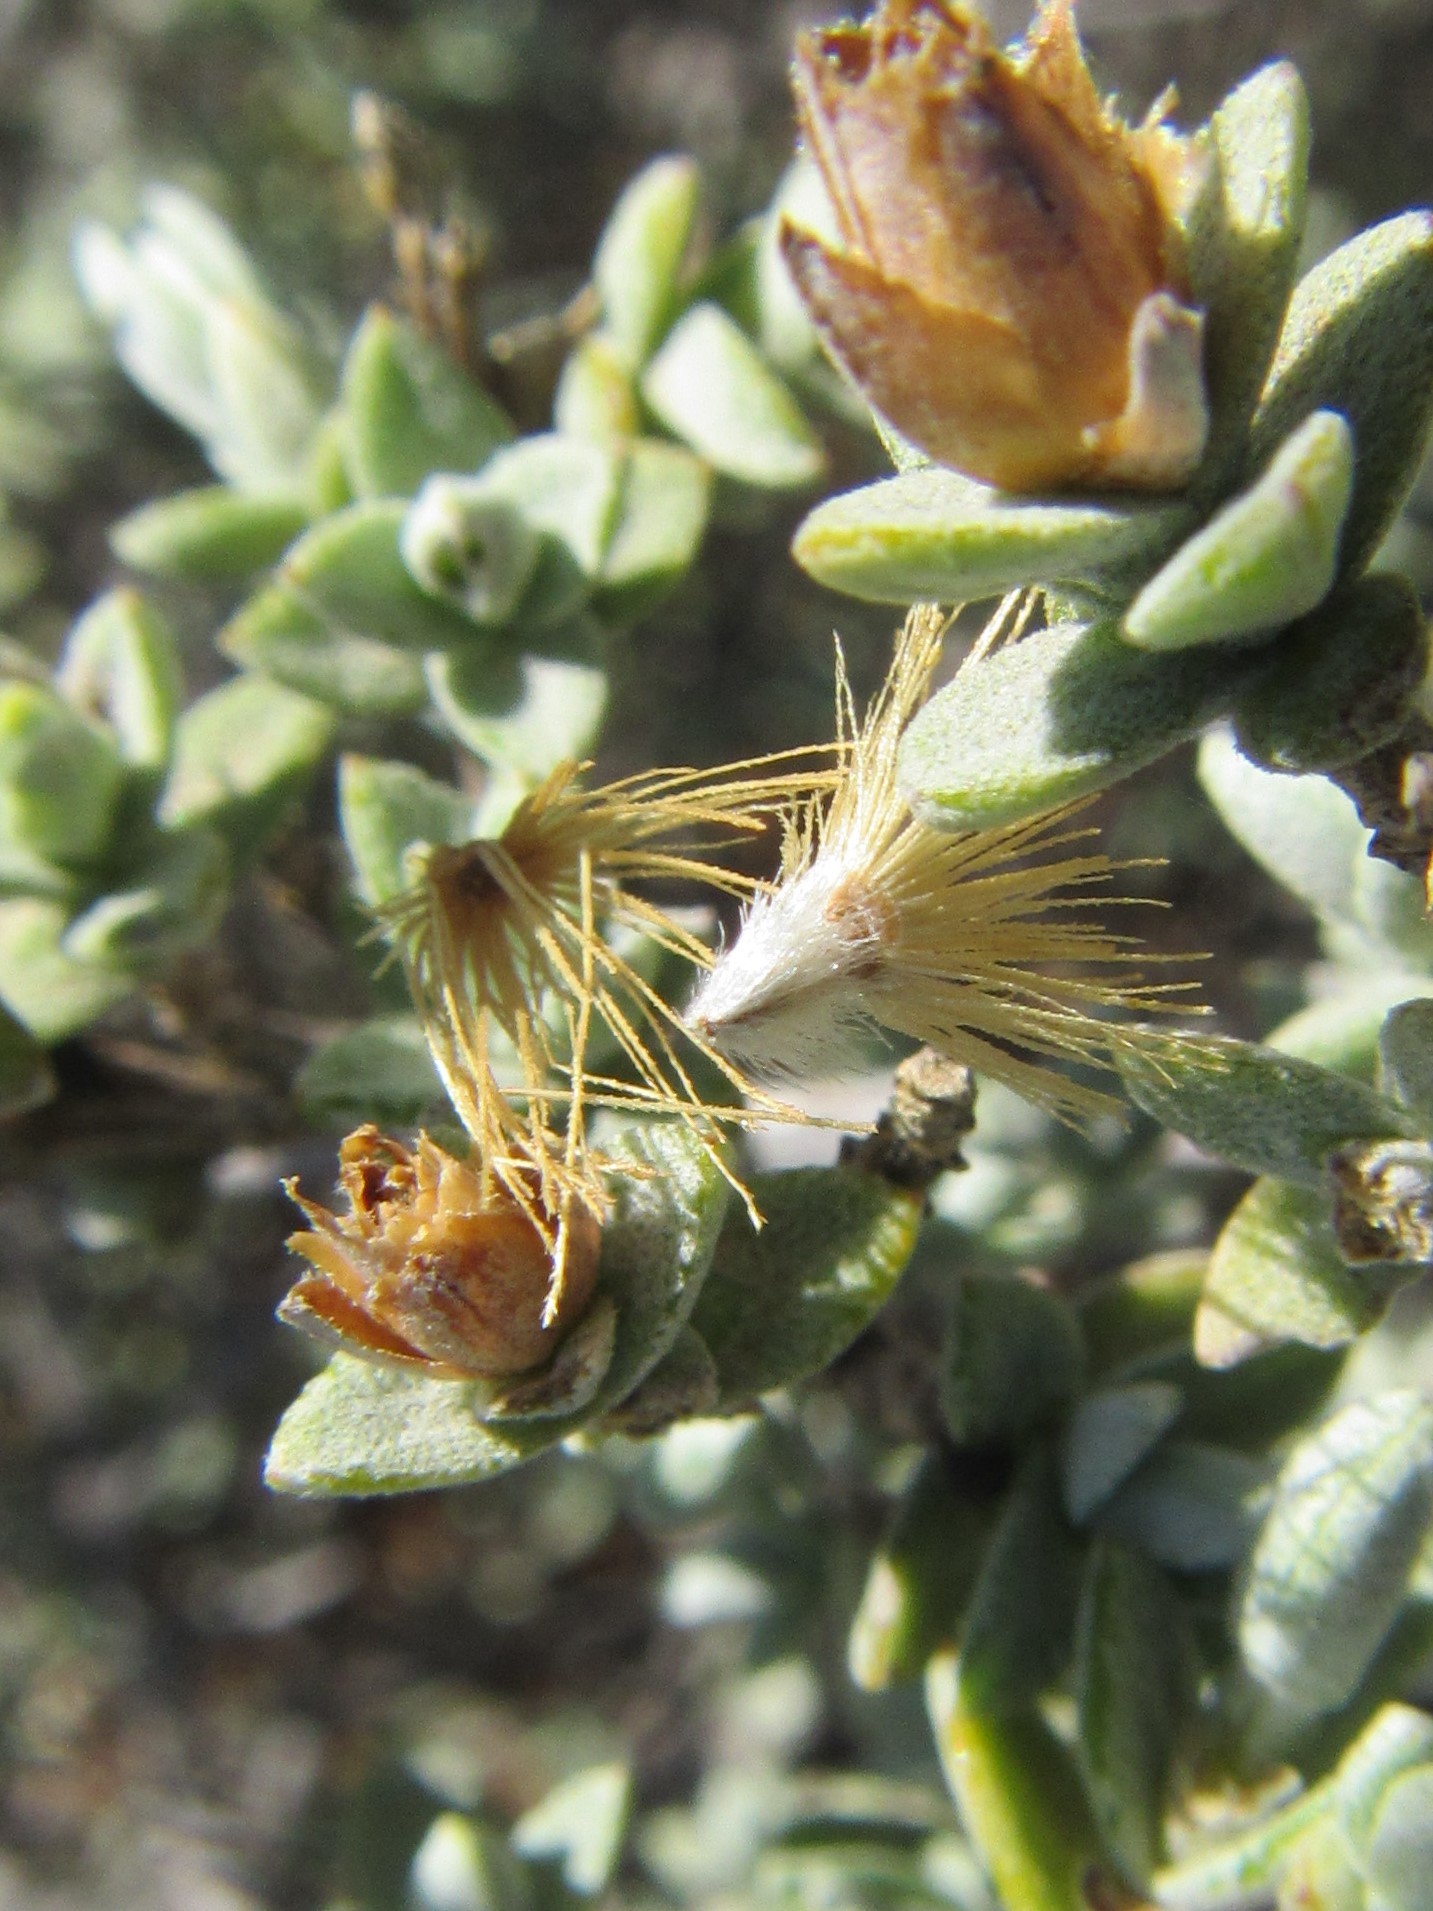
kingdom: Plantae
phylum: Tracheophyta
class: Magnoliopsida
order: Asterales
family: Asteraceae
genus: Pteronia
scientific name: Pteronia glauca
